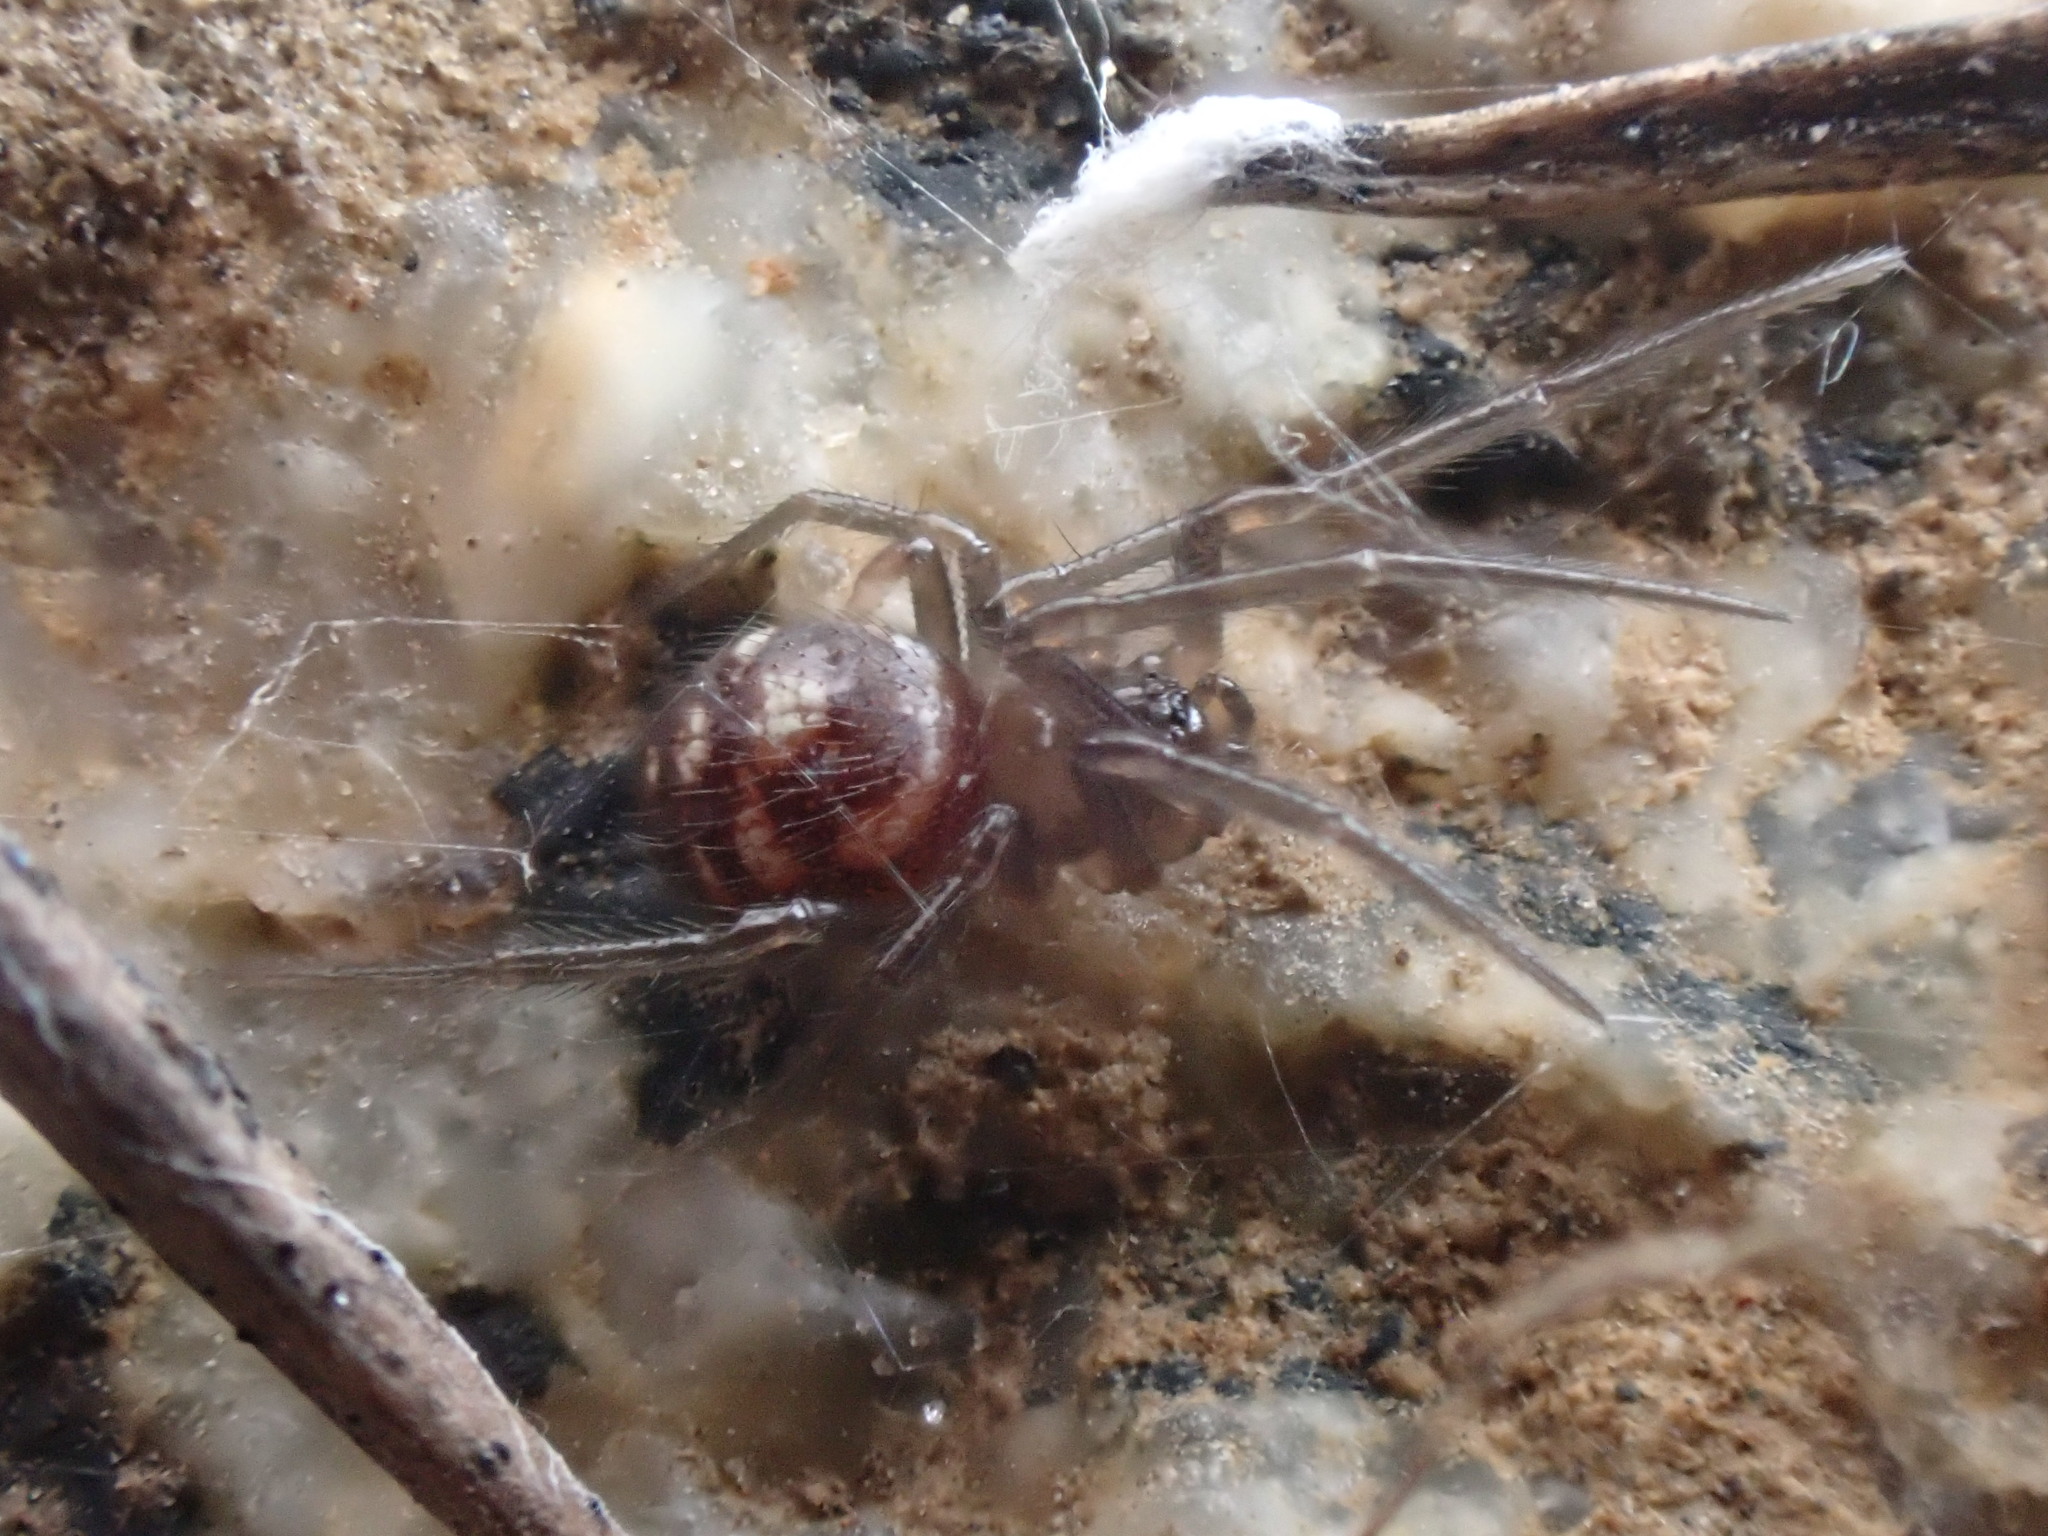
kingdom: Animalia
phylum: Arthropoda
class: Arachnida
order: Araneae
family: Theridiidae
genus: Steatoda
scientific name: Steatoda grossa
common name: False black widow
